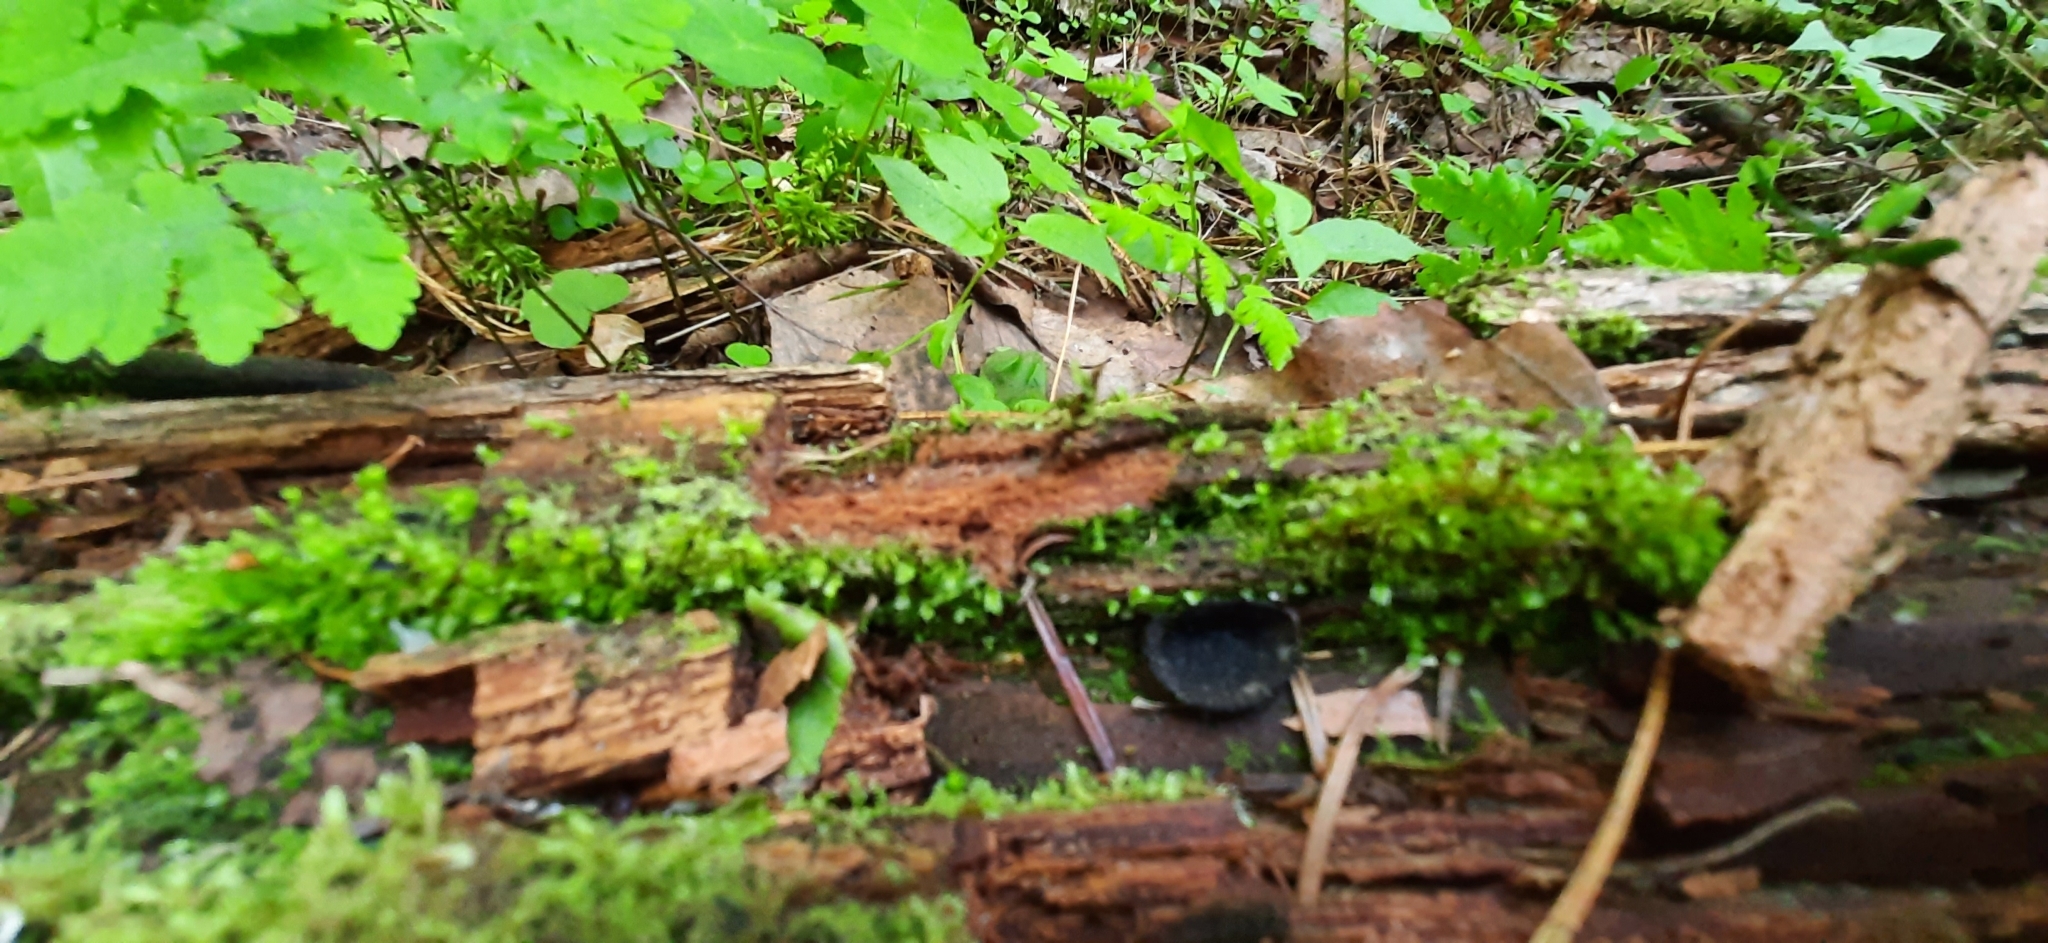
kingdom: Fungi
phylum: Ascomycota
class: Pezizomycetes
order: Pezizales
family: Sarcosomataceae
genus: Pseudoplectania
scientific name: Pseudoplectania nigrella
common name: Ebony cup
